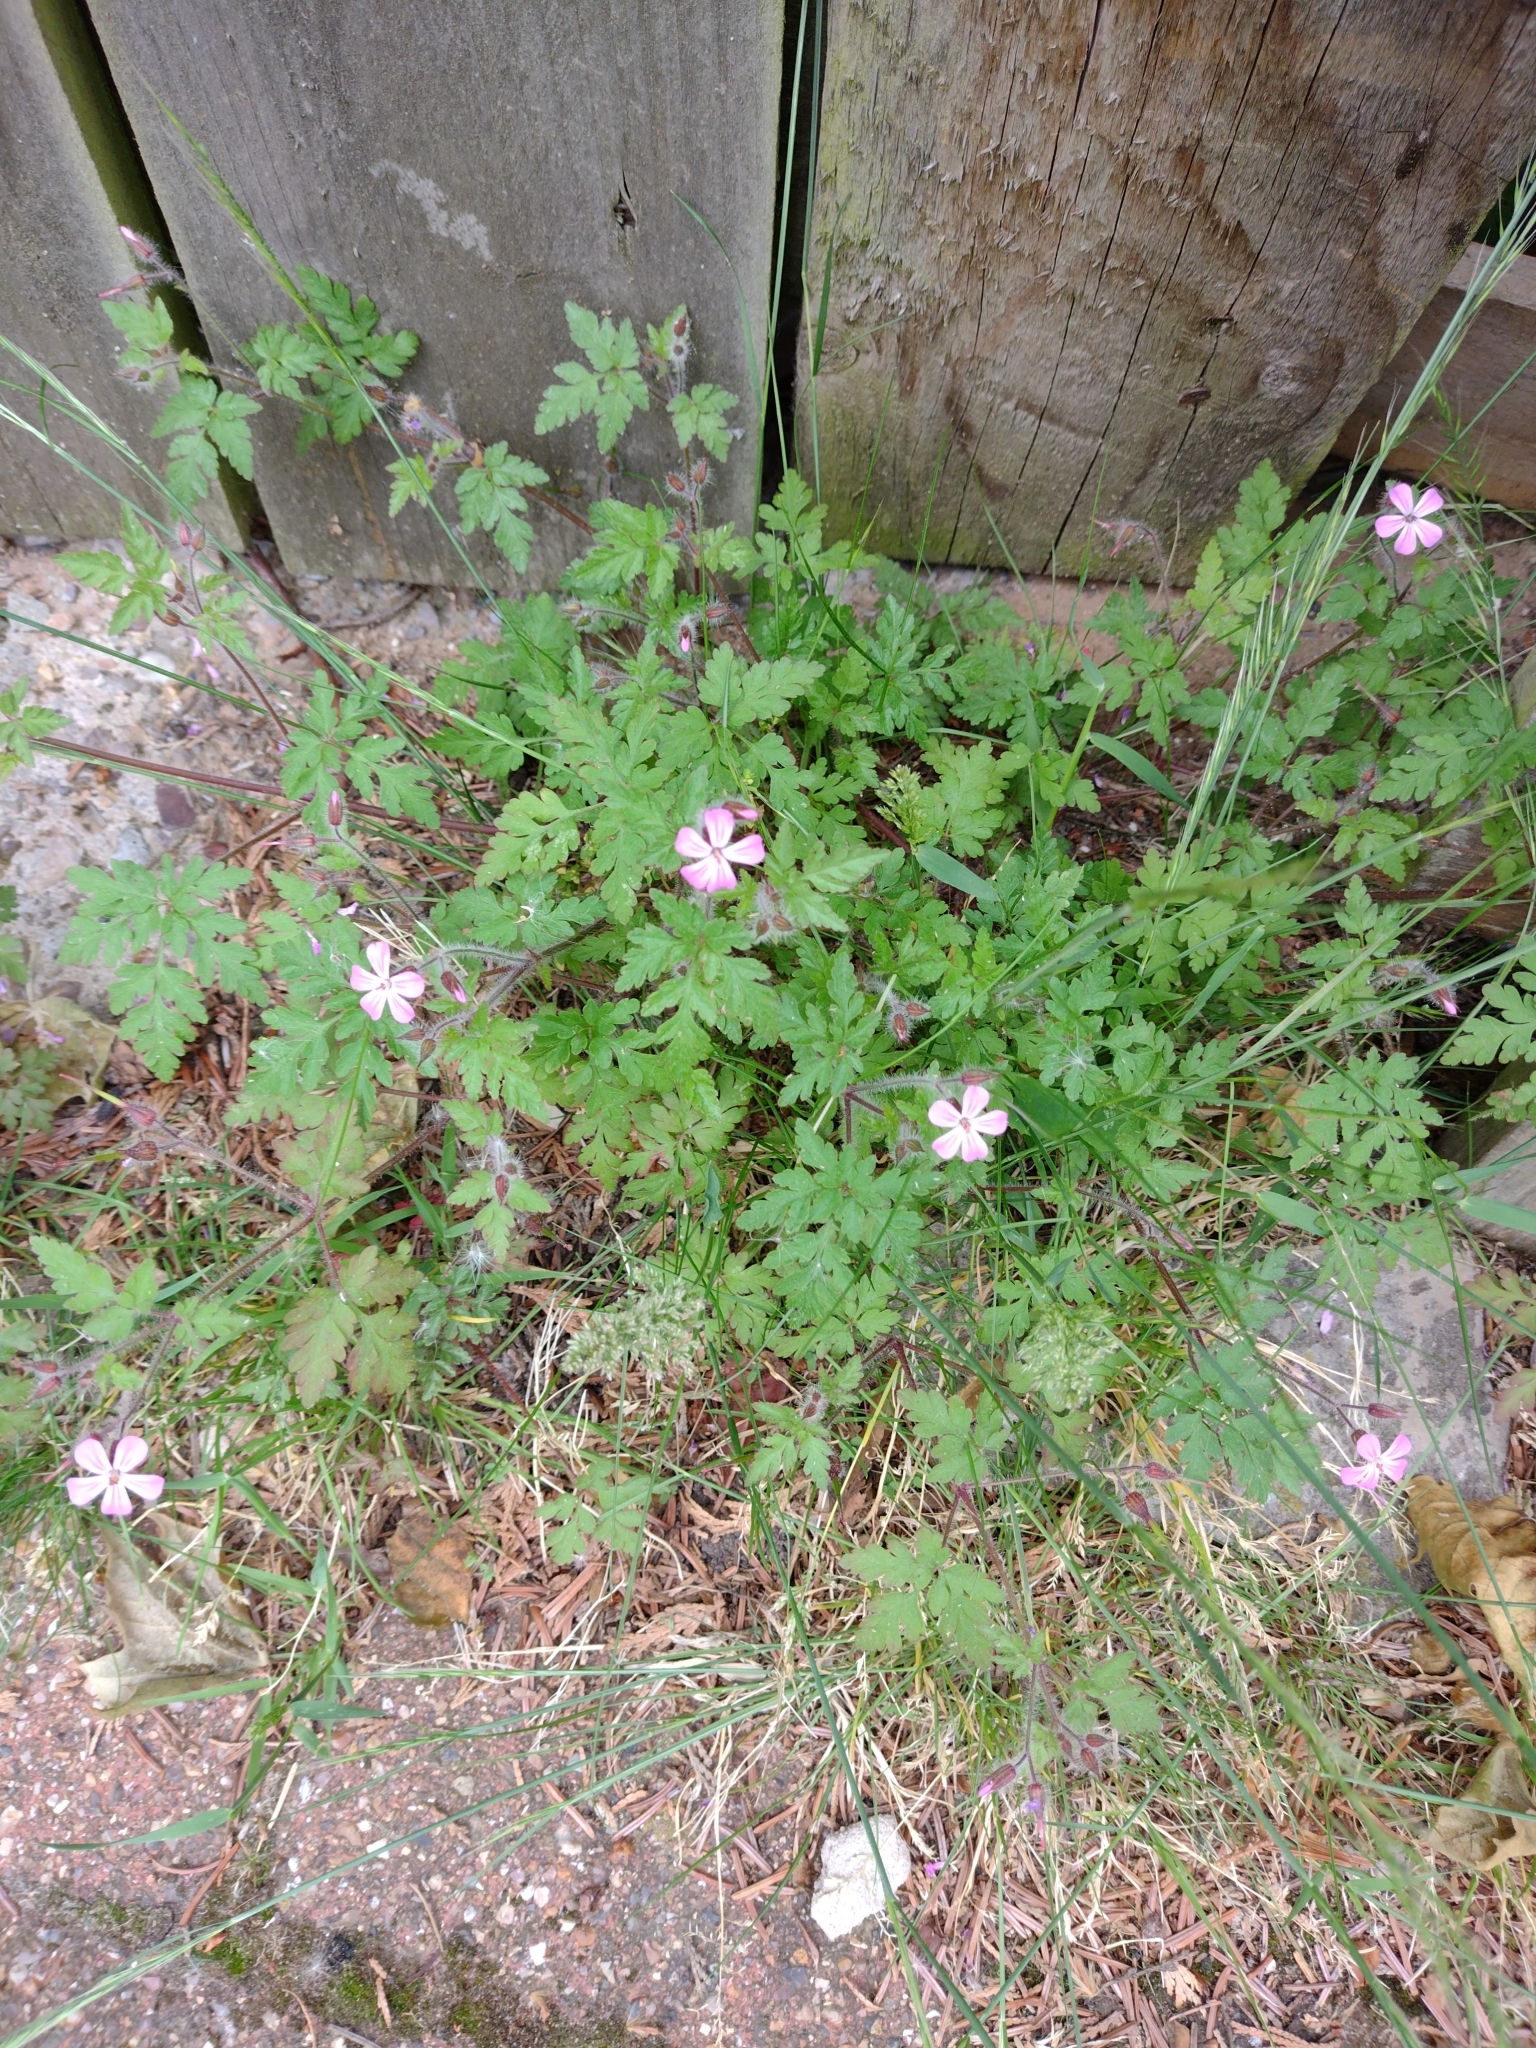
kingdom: Plantae
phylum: Tracheophyta
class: Magnoliopsida
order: Geraniales
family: Geraniaceae
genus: Geranium
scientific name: Geranium robertianum
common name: Herb-robert
